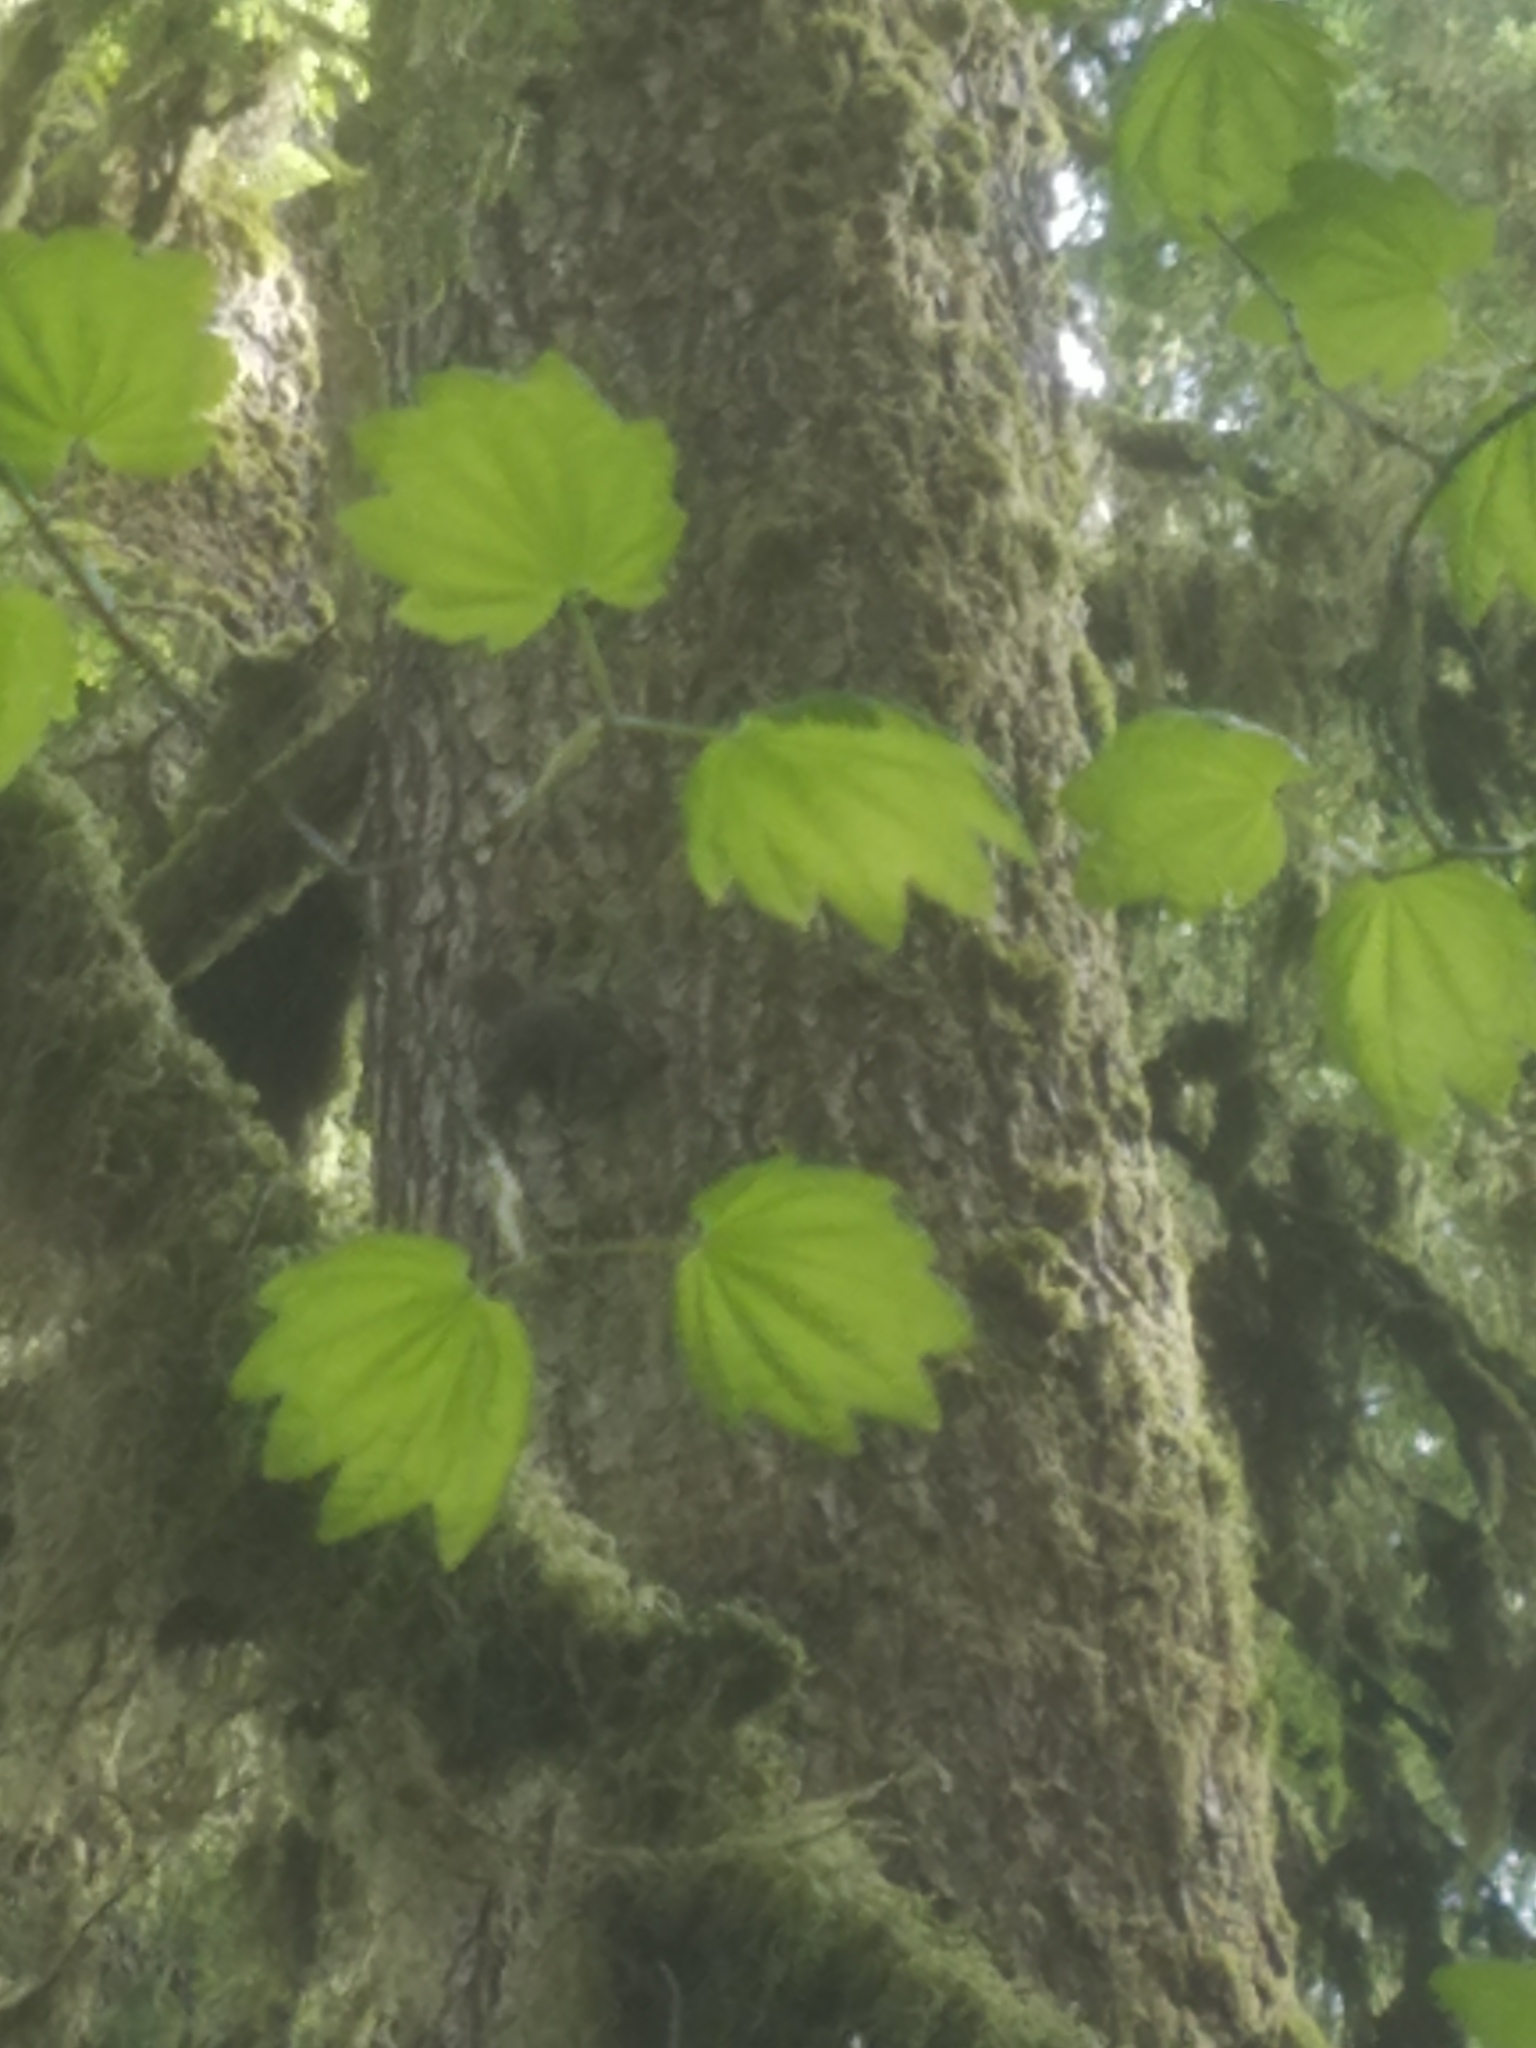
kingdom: Animalia
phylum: Chordata
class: Mammalia
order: Rodentia
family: Sciuridae
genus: Tamiasciurus
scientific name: Tamiasciurus douglasii
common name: Douglas's squirrel
